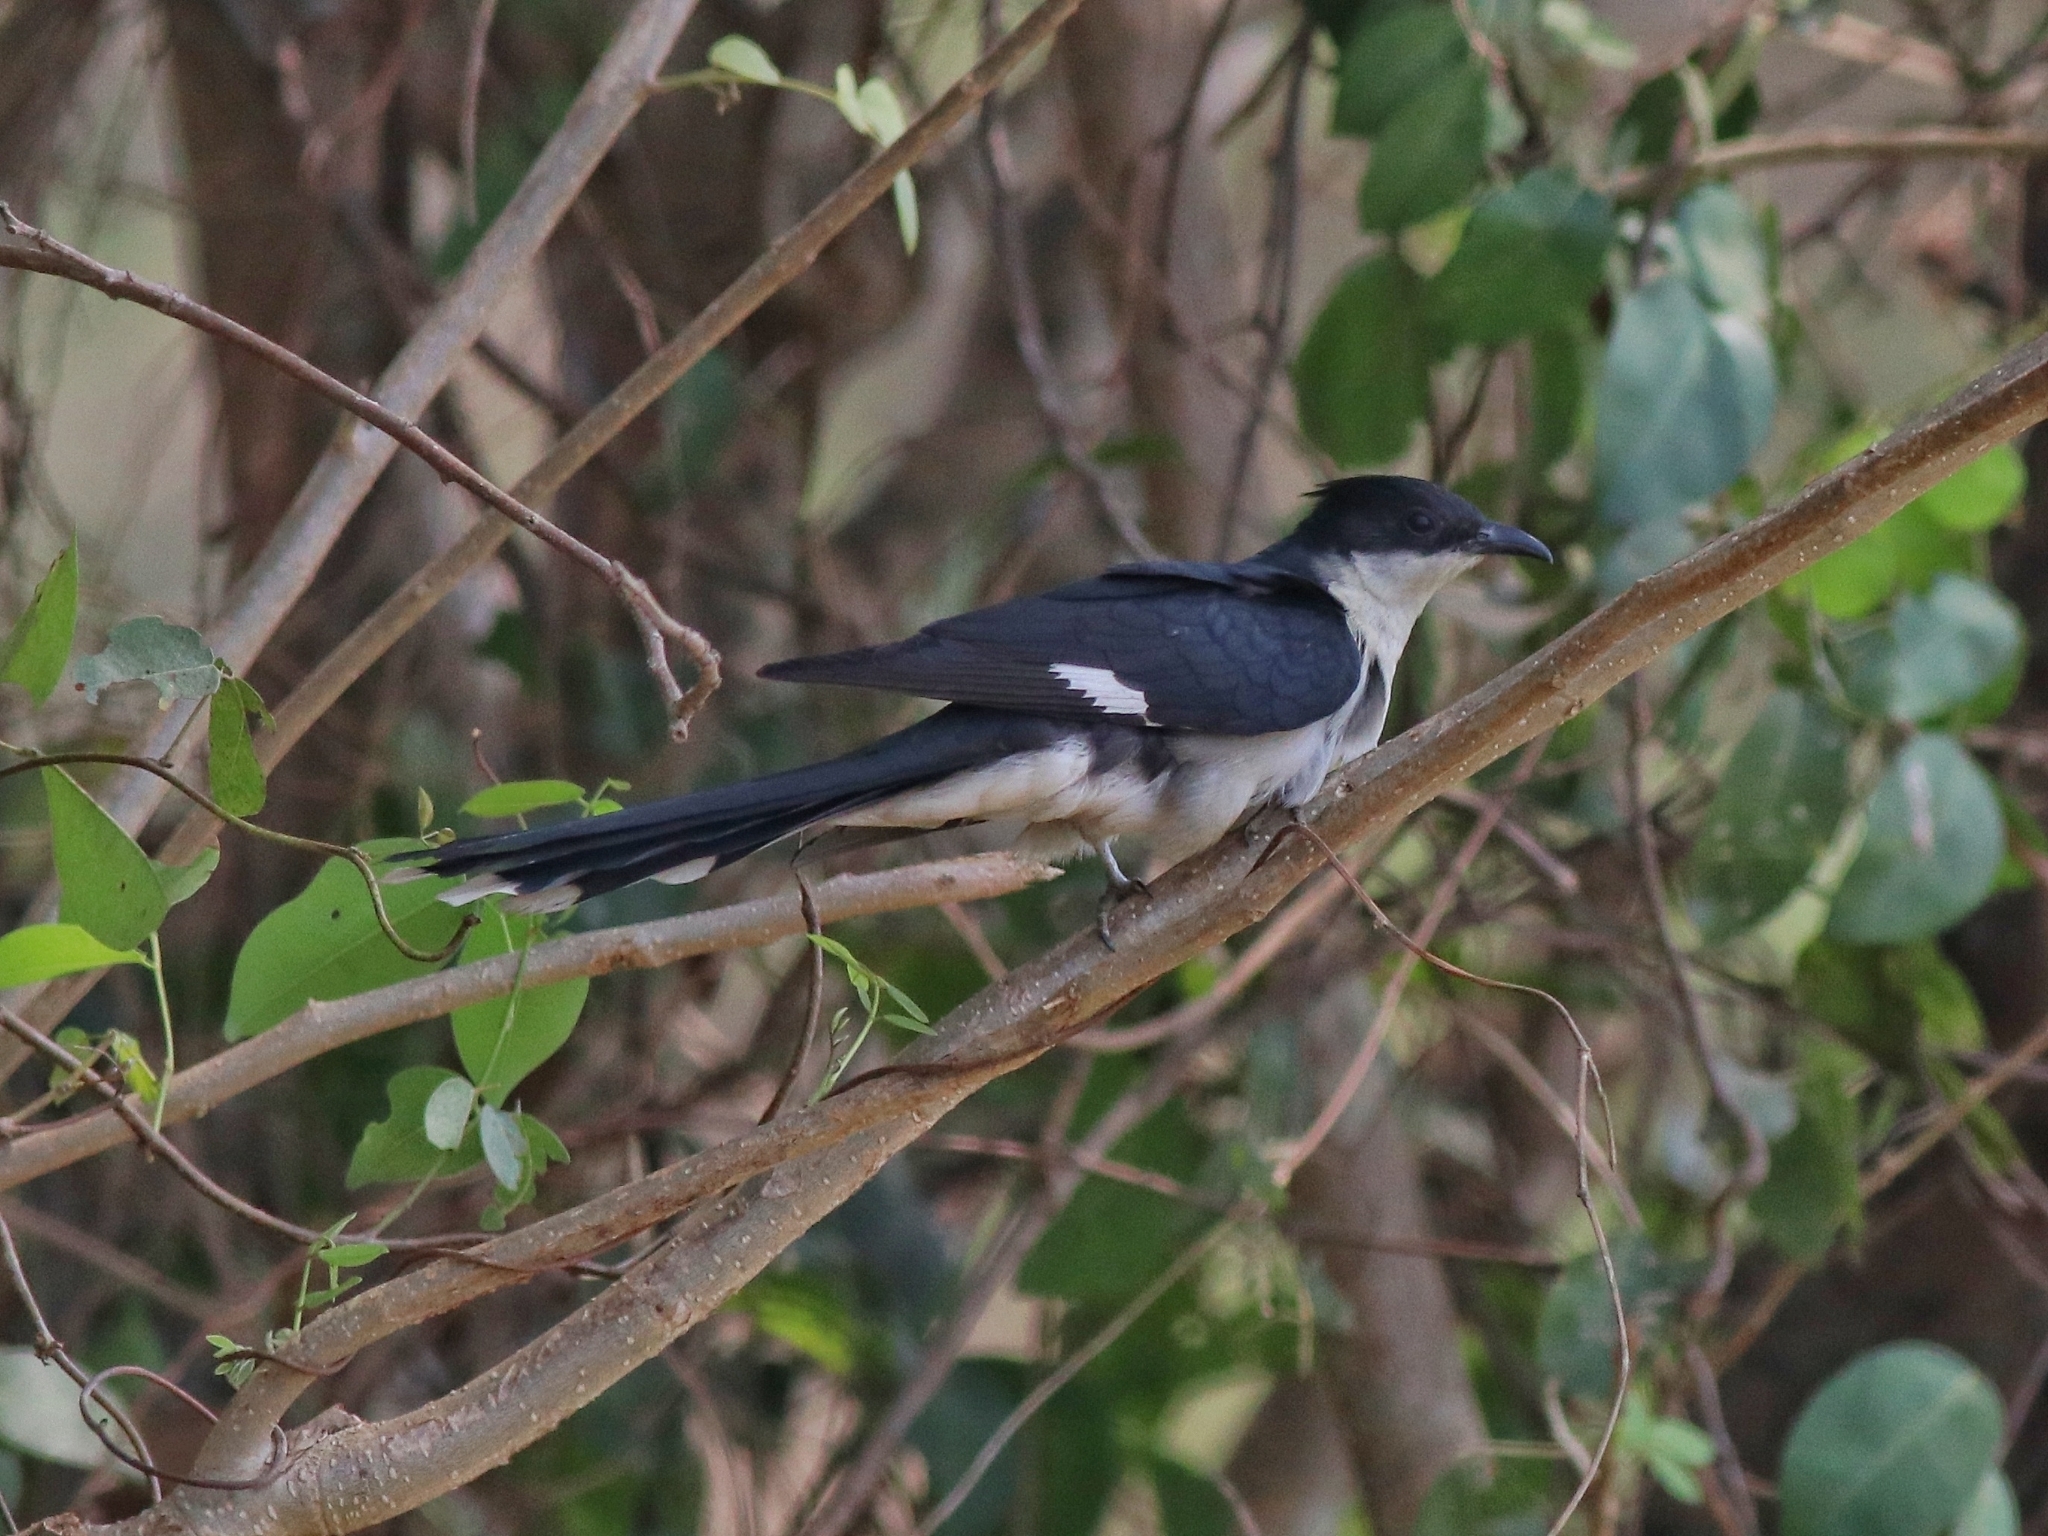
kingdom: Animalia
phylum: Chordata
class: Aves
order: Cuculiformes
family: Cuculidae
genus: Clamator
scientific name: Clamator jacobinus
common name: Jacobin cuckoo
